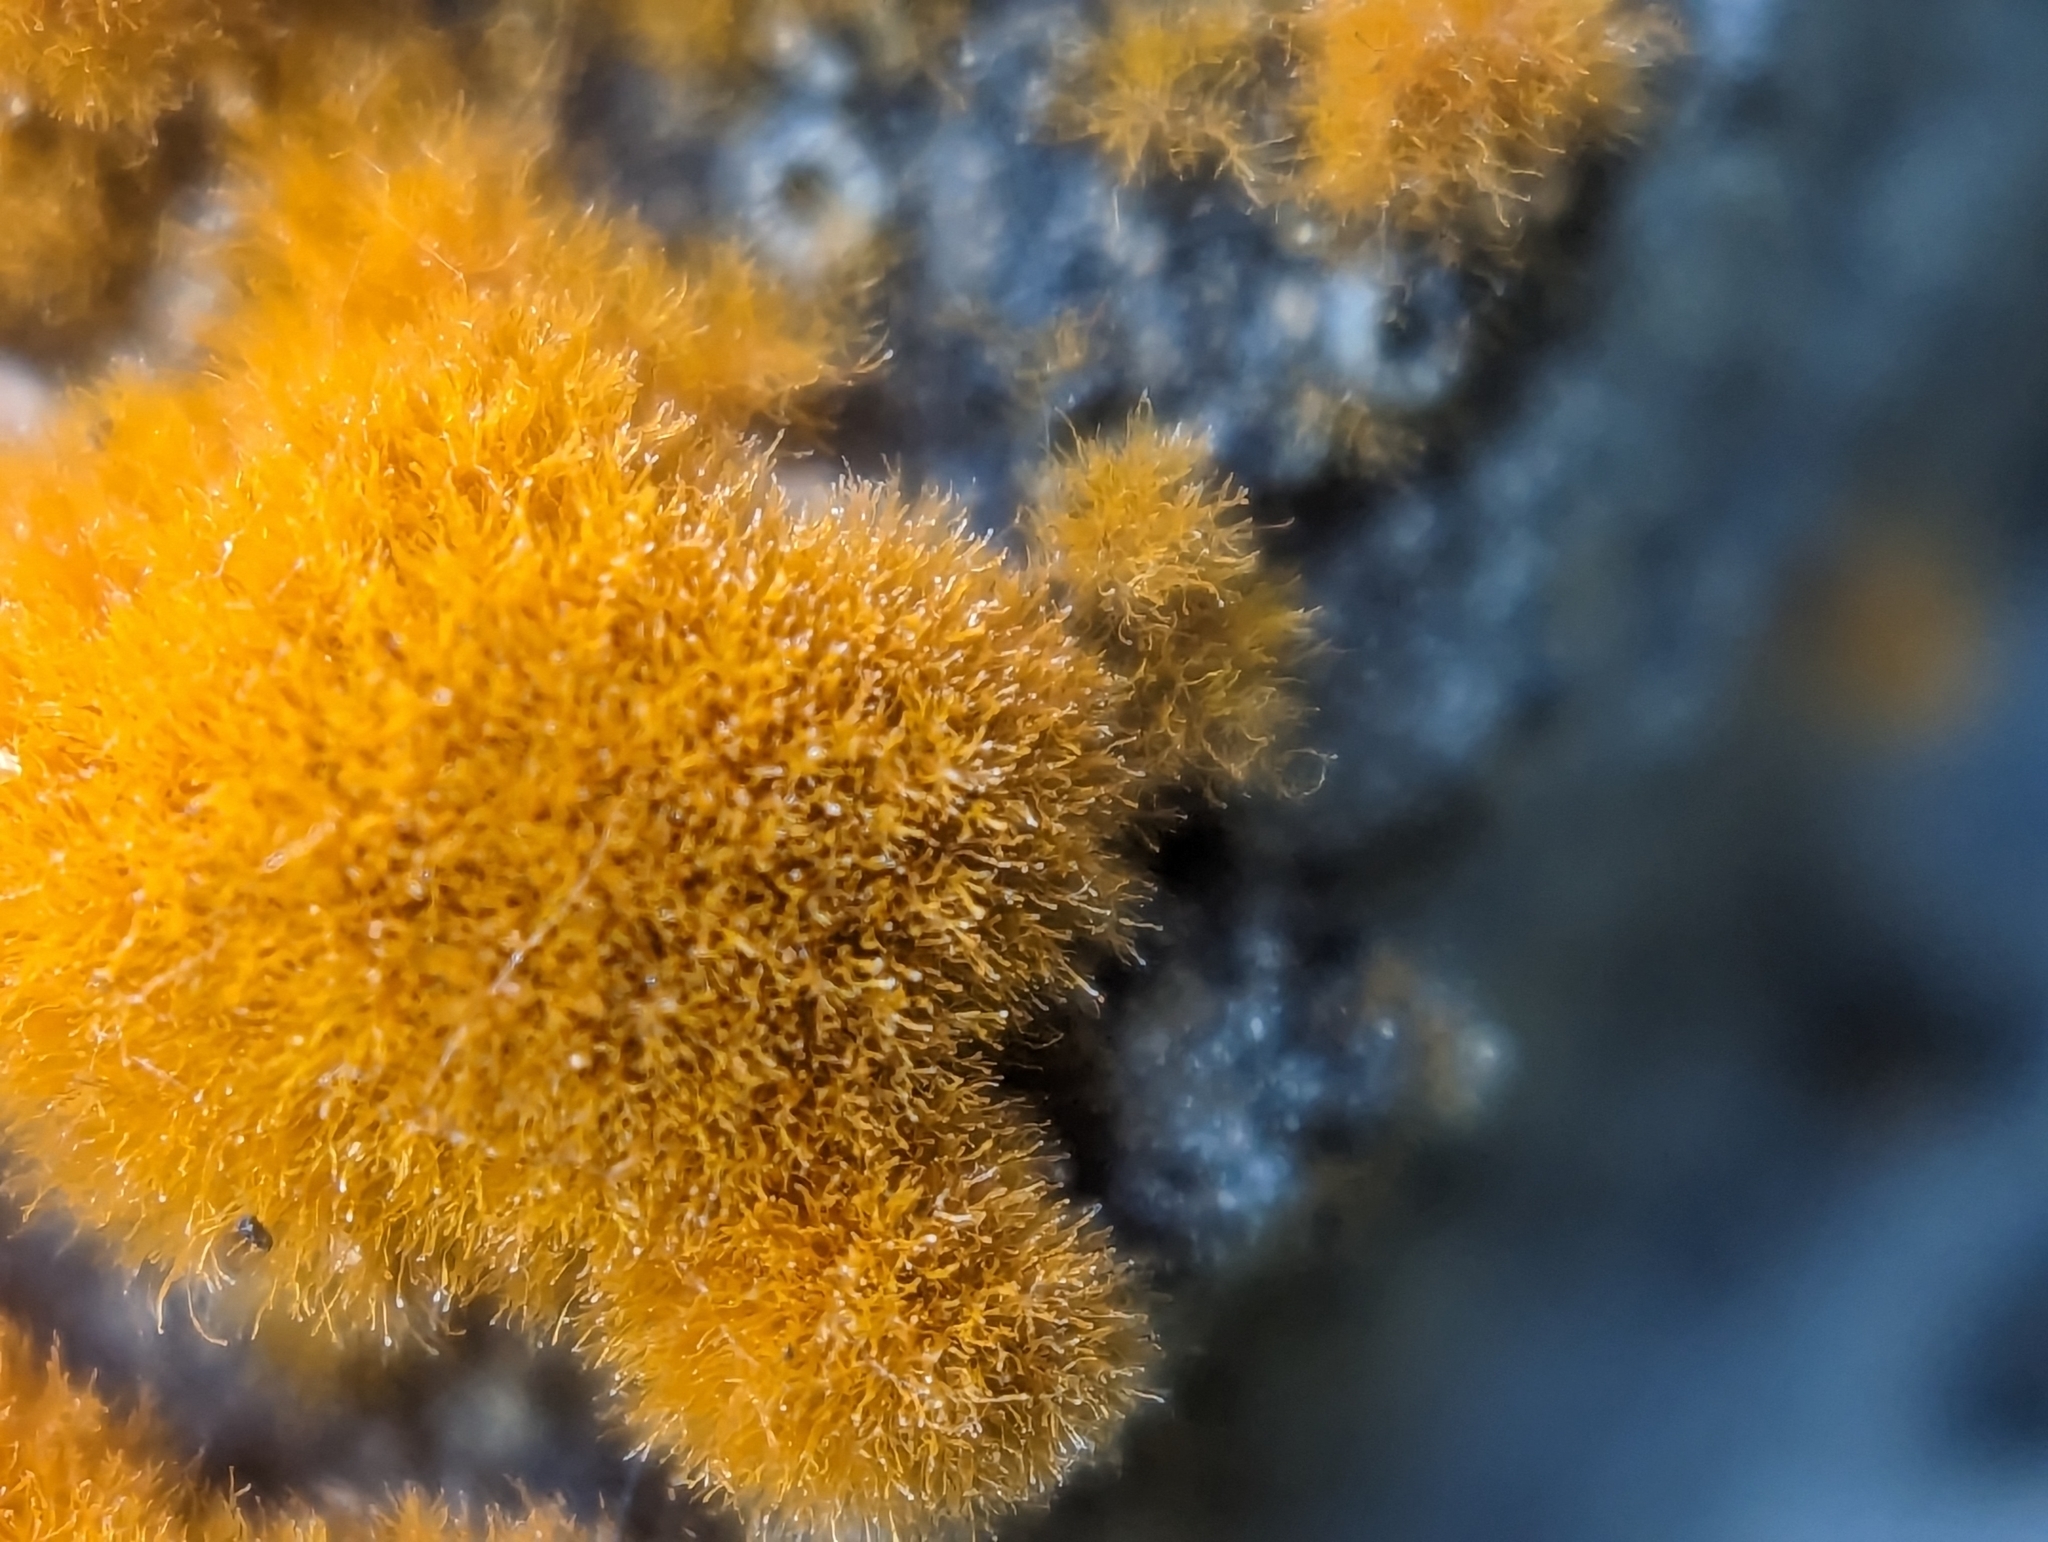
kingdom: Plantae
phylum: Chlorophyta
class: Ulvophyceae
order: Trentepohliales
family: Trentepohliaceae
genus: Trentepohlia
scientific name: Trentepohlia aurea
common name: Orange rock hair
